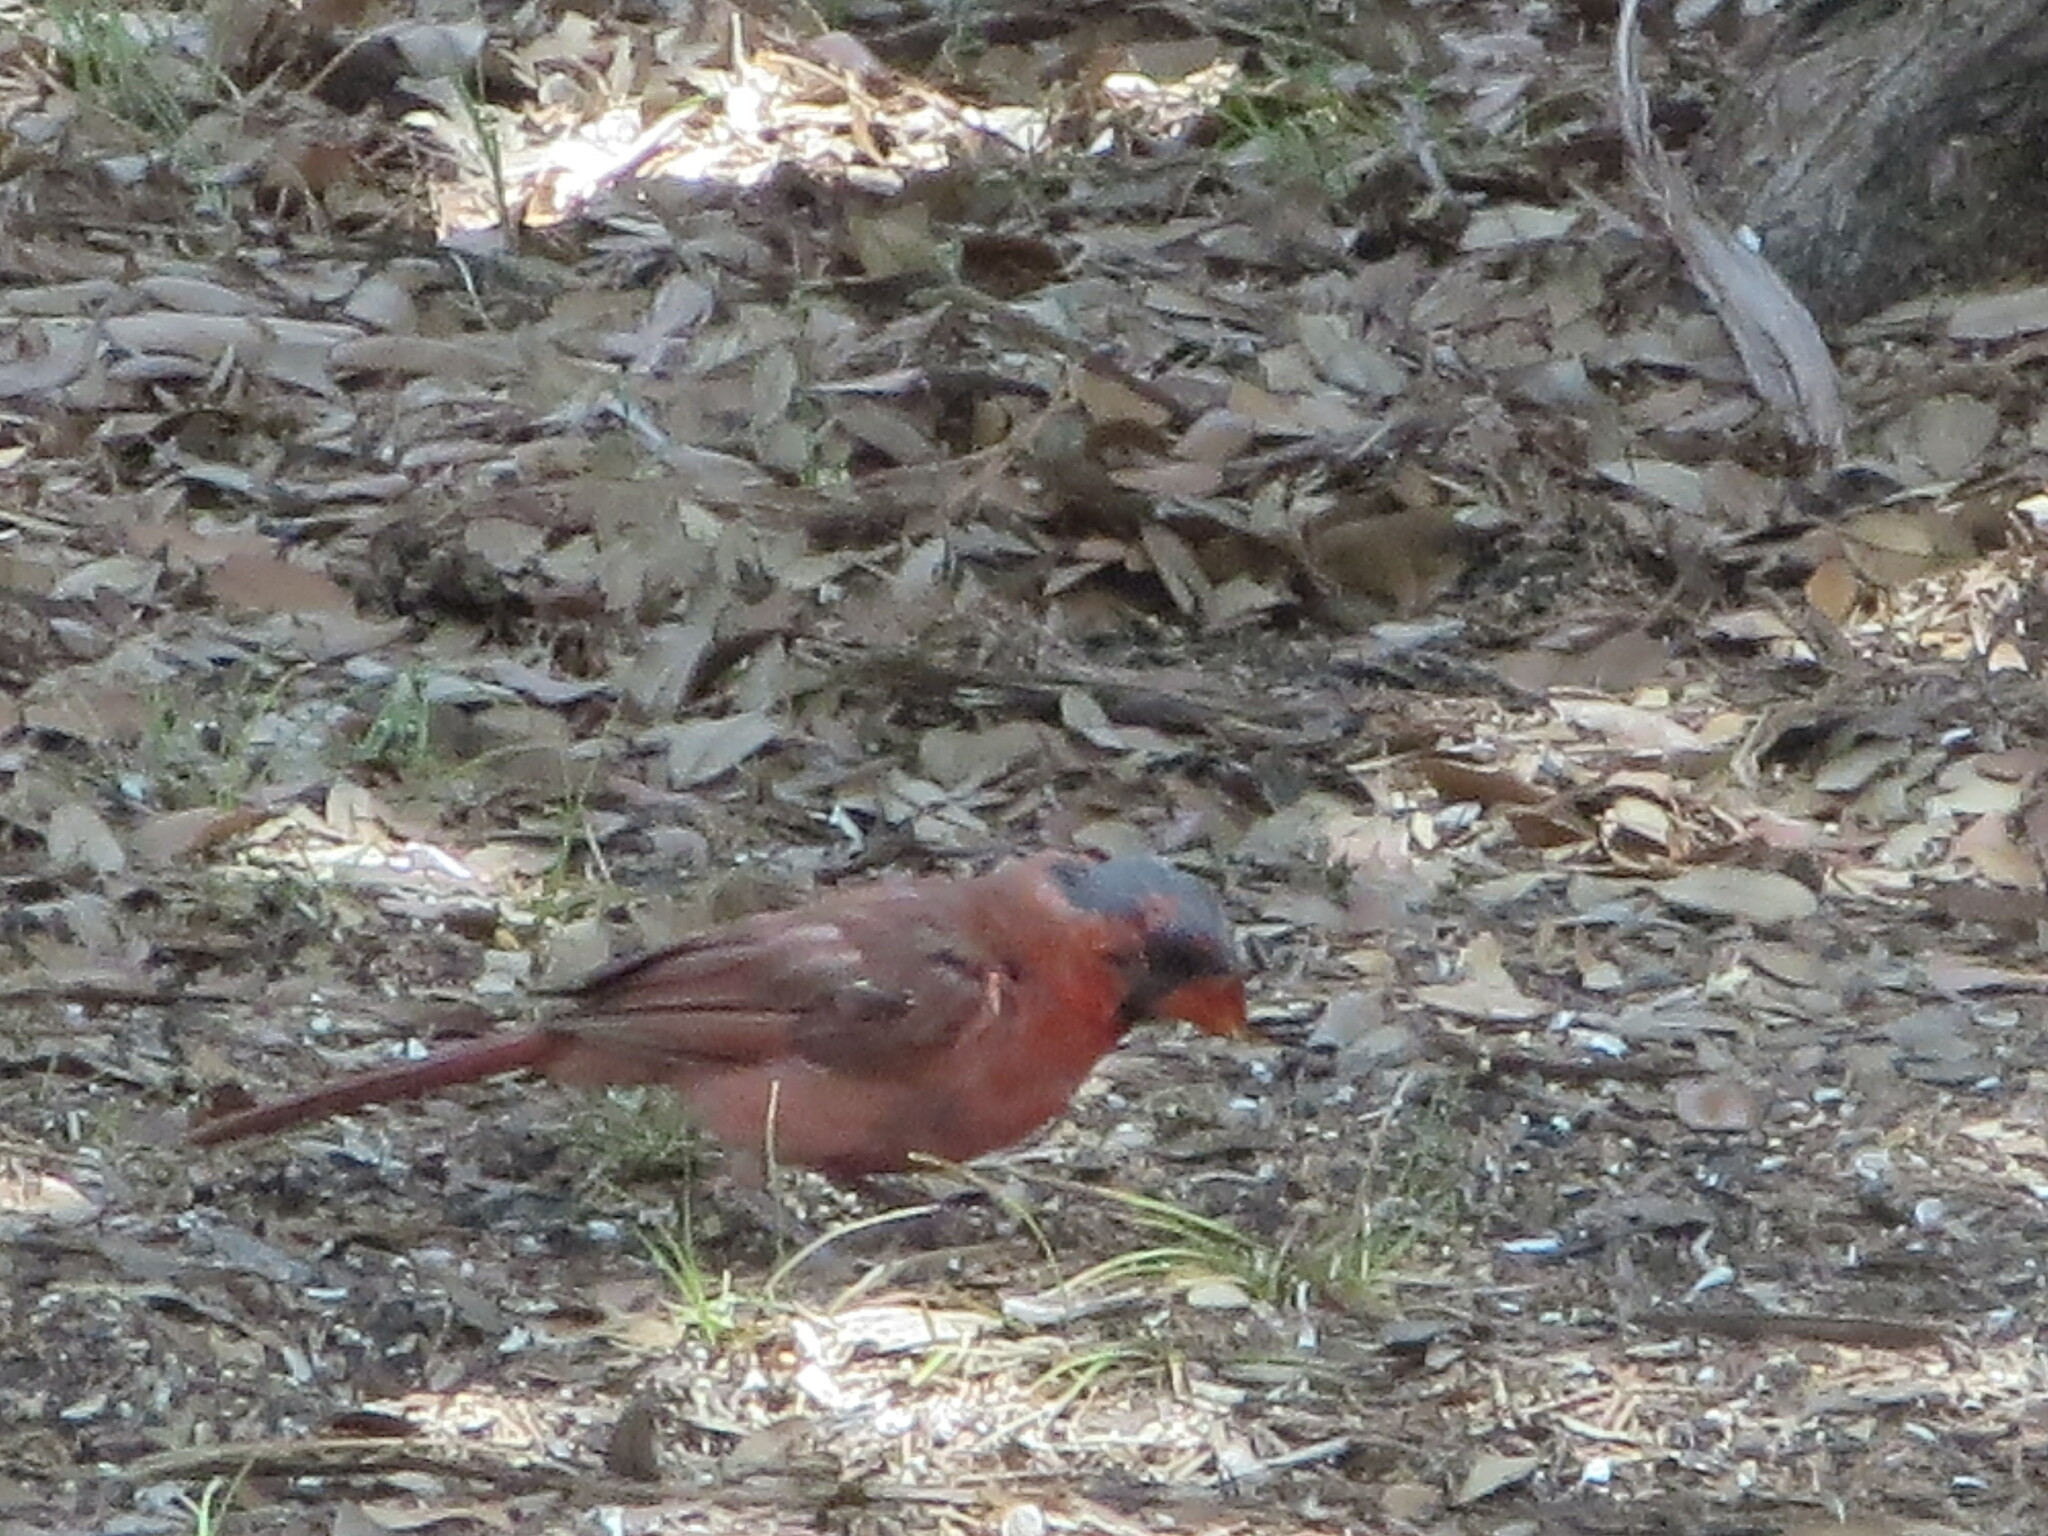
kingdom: Animalia
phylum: Chordata
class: Aves
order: Passeriformes
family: Cardinalidae
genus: Cardinalis
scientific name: Cardinalis cardinalis
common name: Northern cardinal
